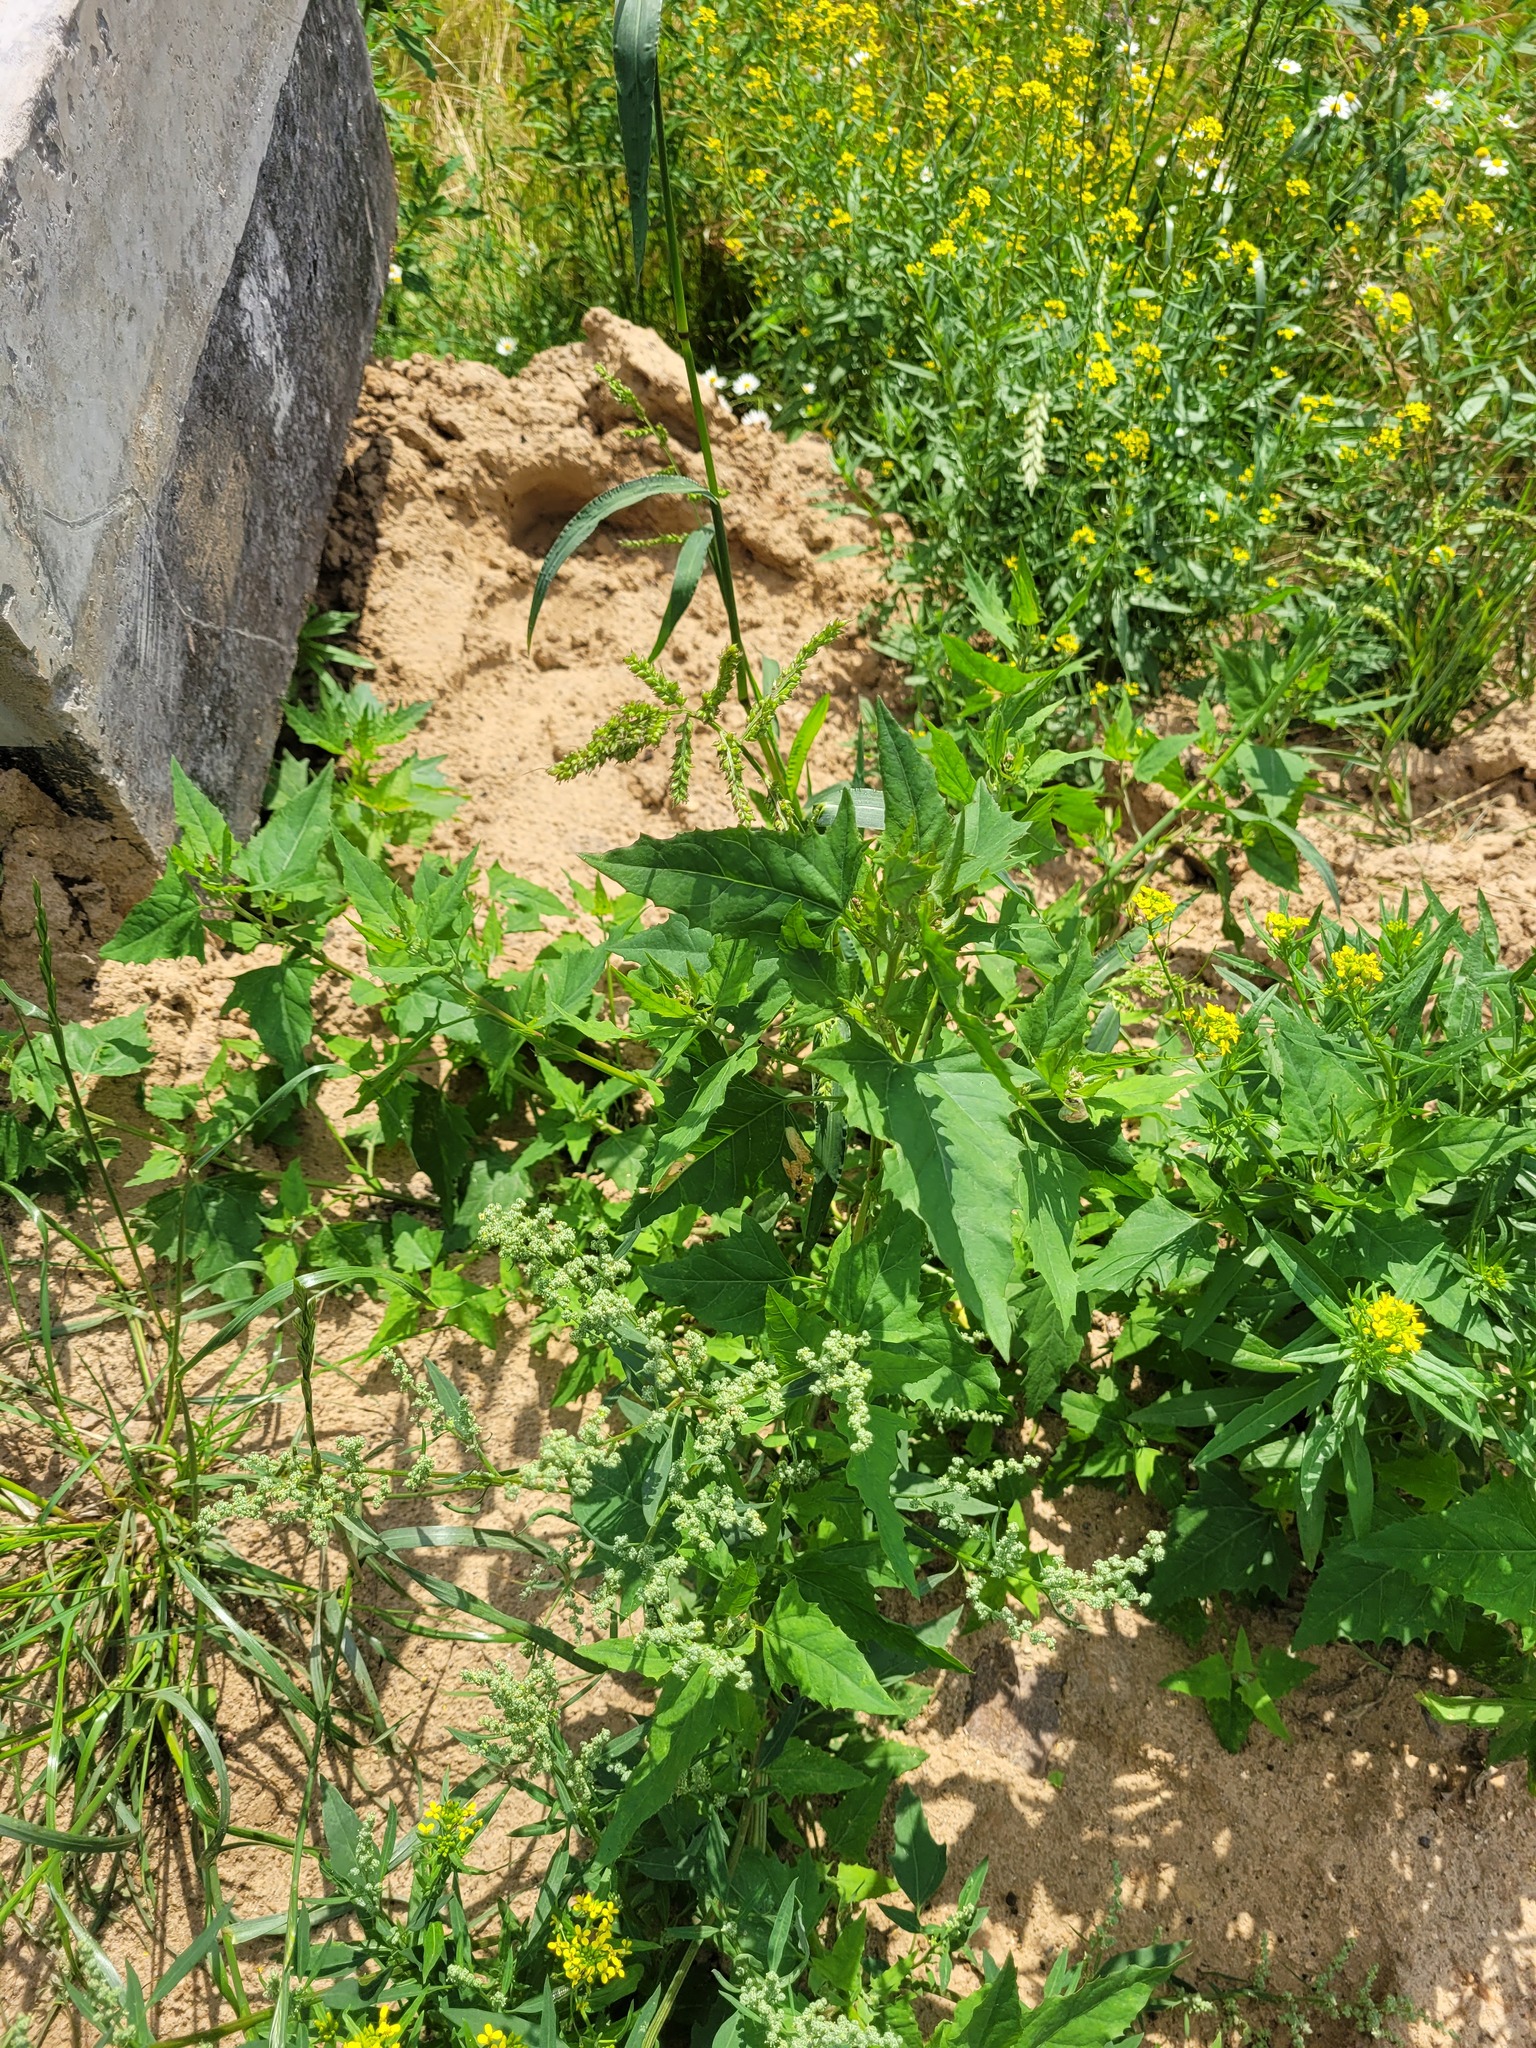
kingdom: Plantae
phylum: Tracheophyta
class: Magnoliopsida
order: Caryophyllales
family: Amaranthaceae
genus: Atriplex
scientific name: Atriplex sagittata
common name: Purple orache
